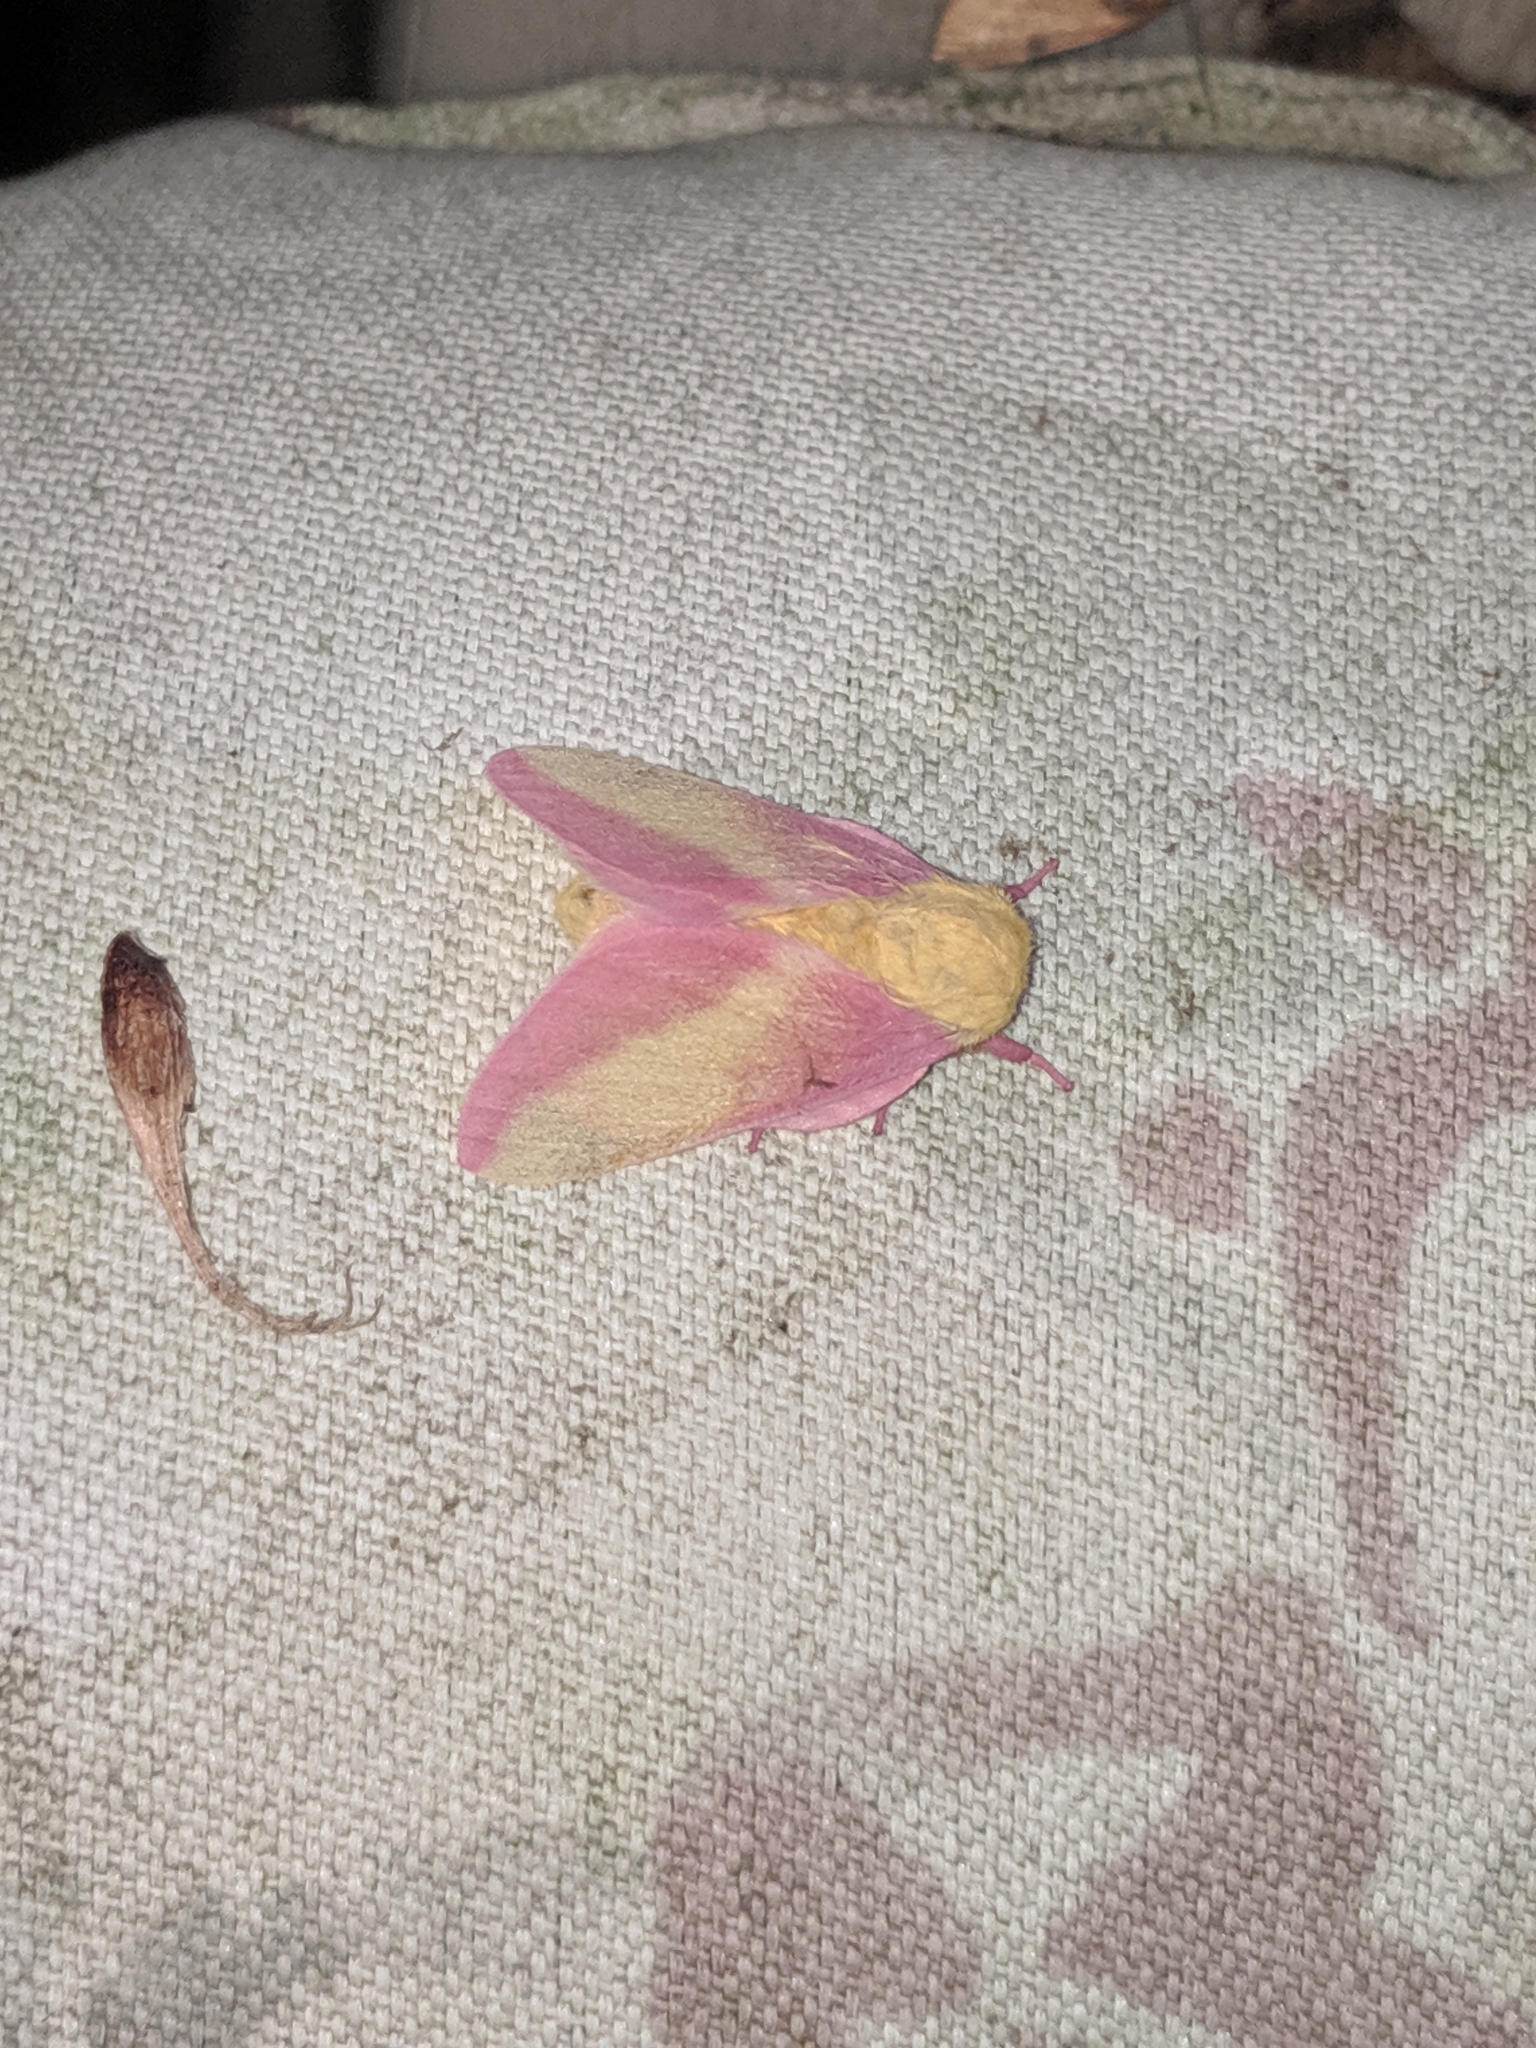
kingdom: Animalia
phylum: Arthropoda
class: Insecta
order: Lepidoptera
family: Saturniidae
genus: Dryocampa
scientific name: Dryocampa rubicunda
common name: Rosy maple moth
